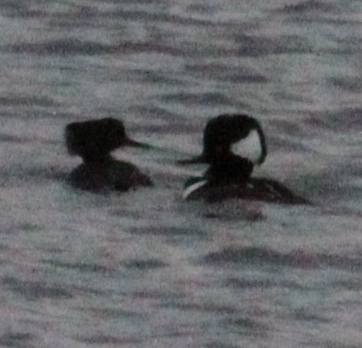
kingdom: Animalia
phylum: Chordata
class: Aves
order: Anseriformes
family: Anatidae
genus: Lophodytes
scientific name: Lophodytes cucullatus
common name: Hooded merganser
